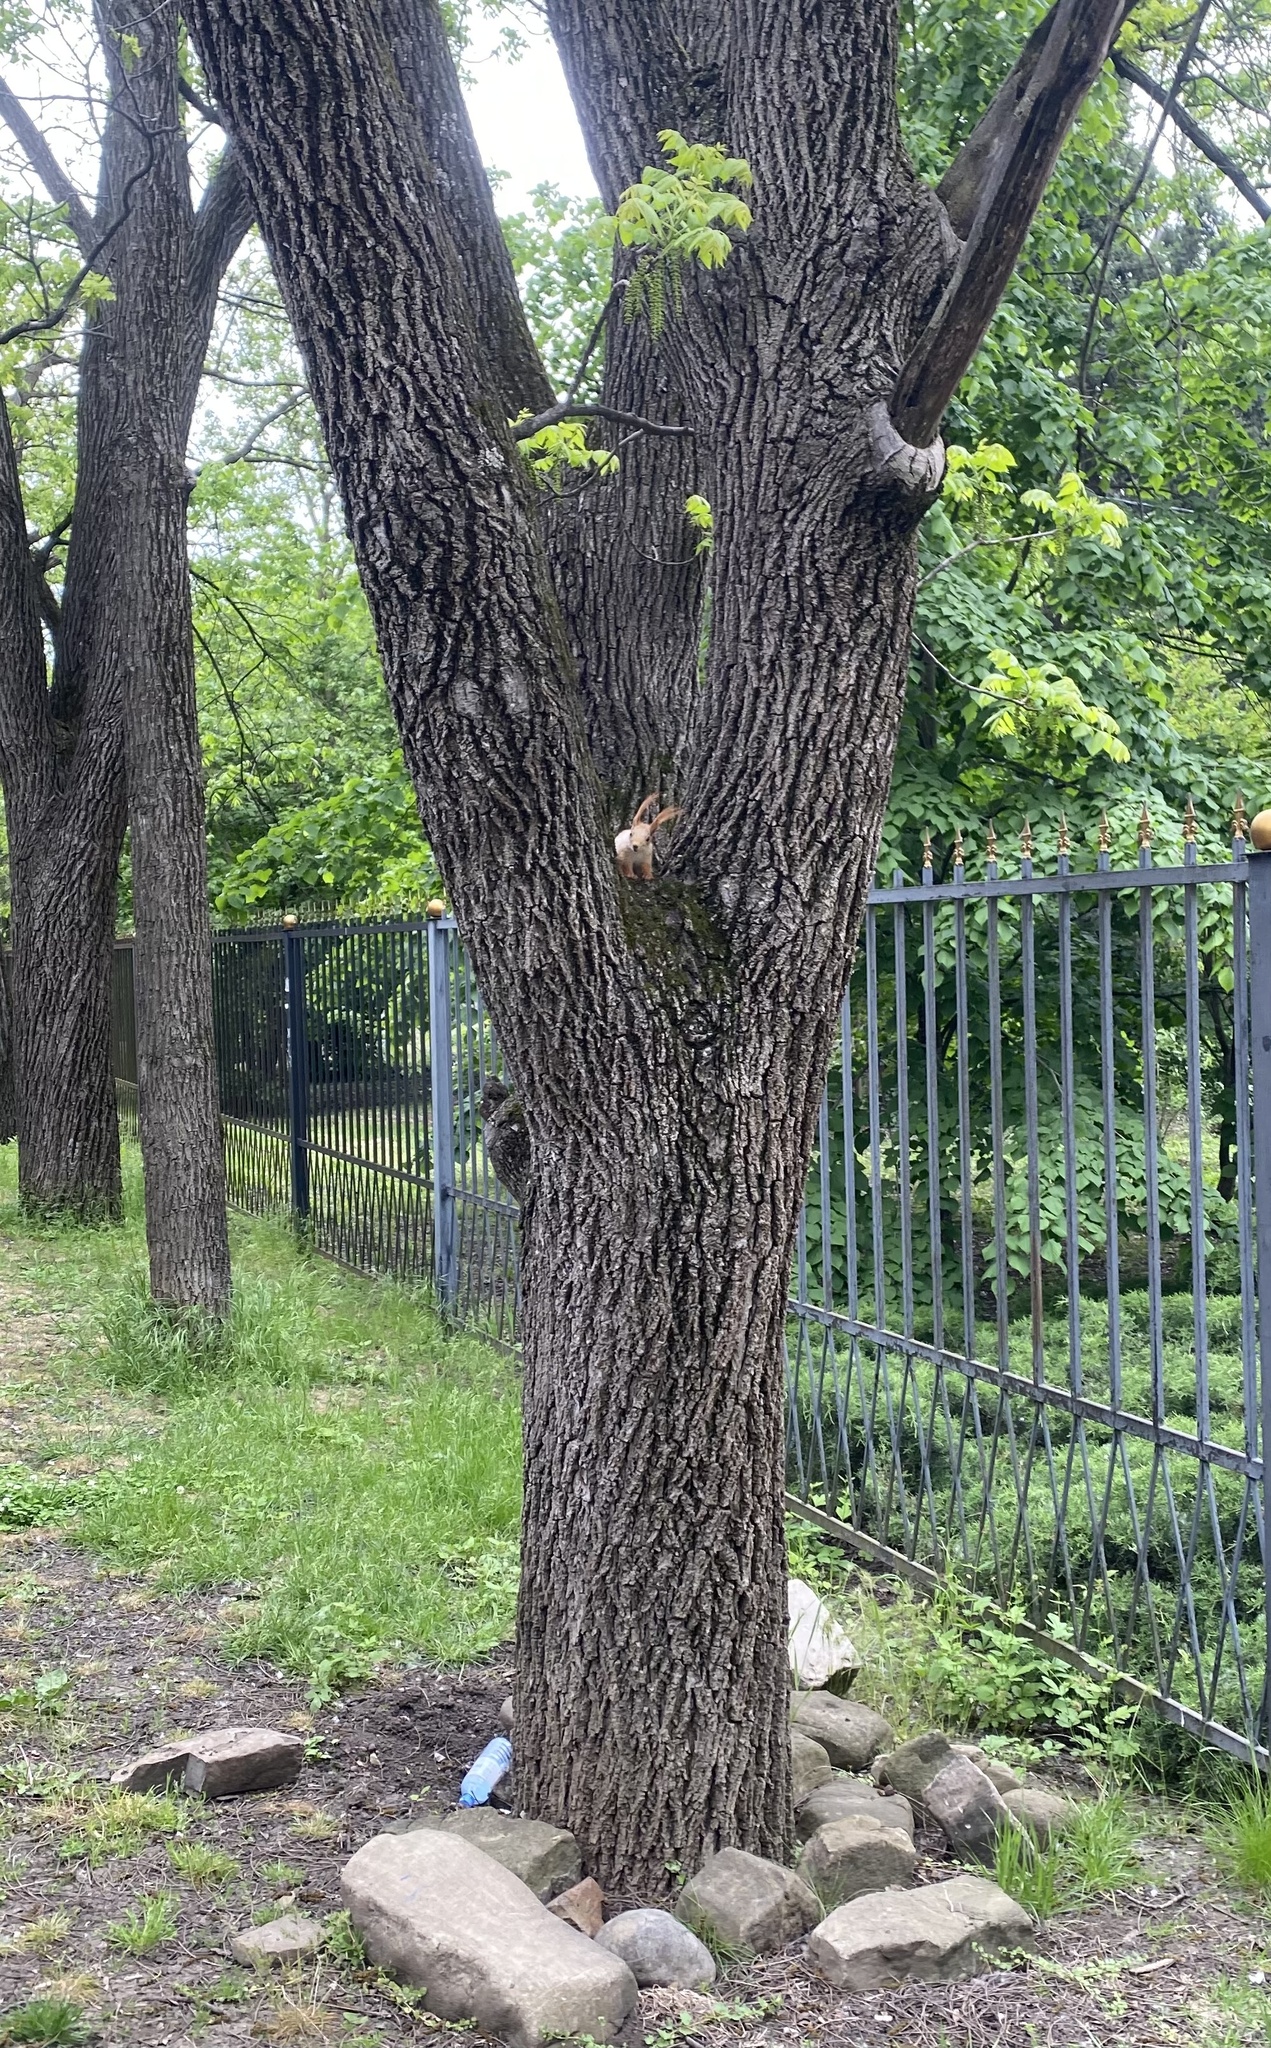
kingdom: Animalia
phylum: Chordata
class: Mammalia
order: Rodentia
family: Sciuridae
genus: Sciurus
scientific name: Sciurus vulgaris
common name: Eurasian red squirrel
